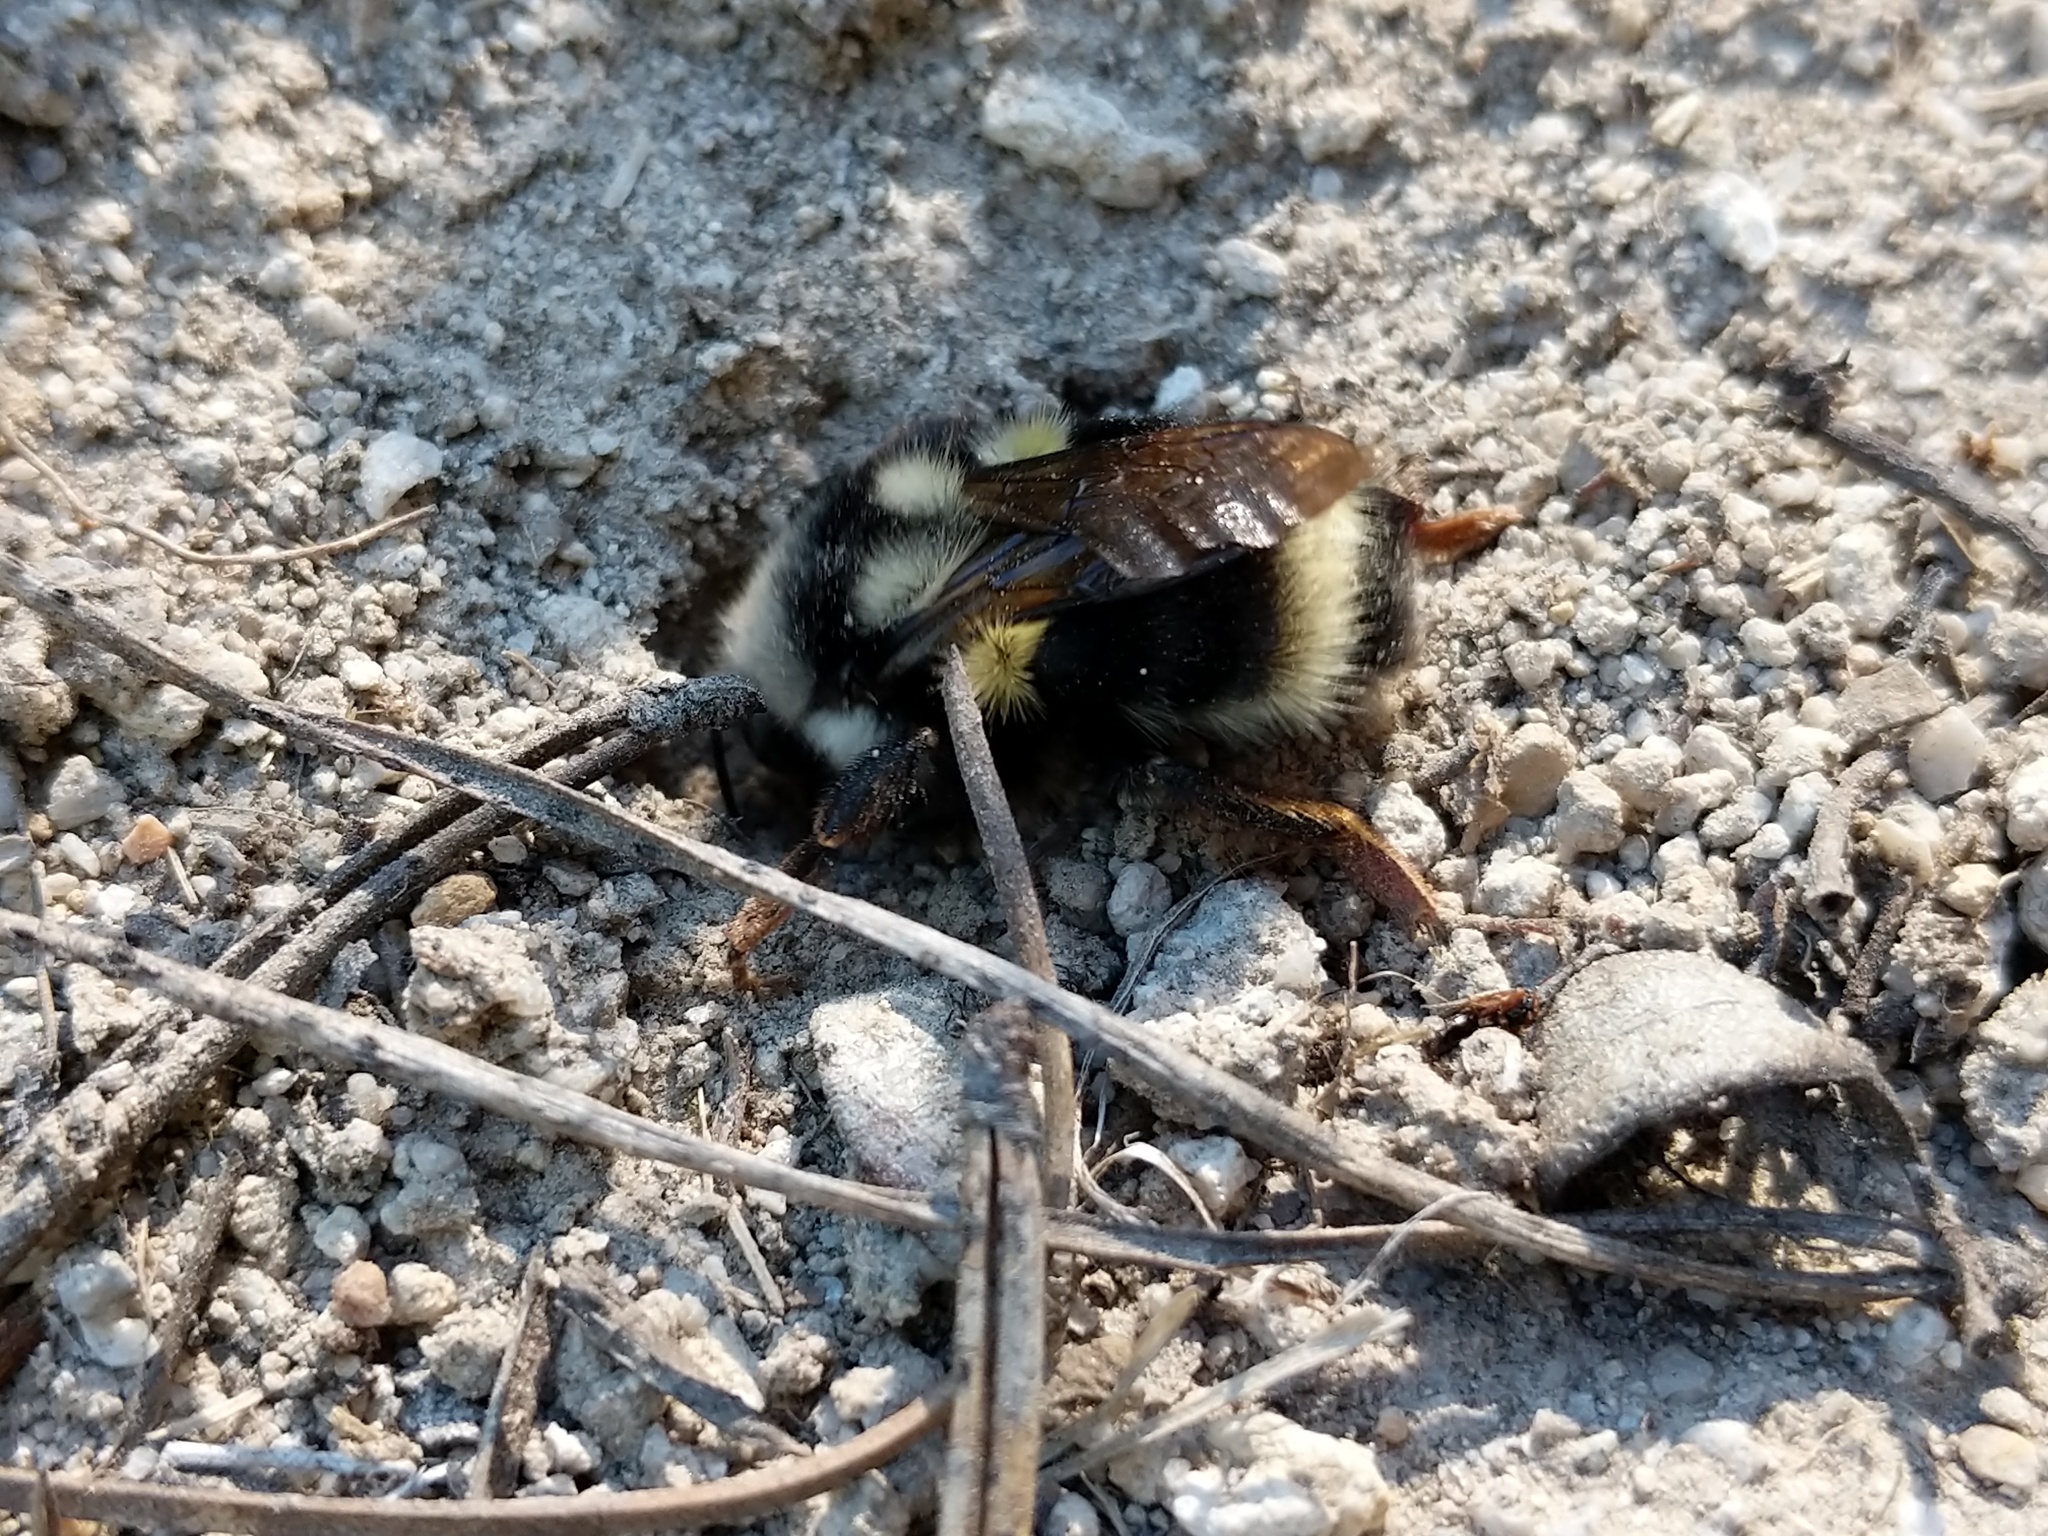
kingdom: Animalia
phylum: Arthropoda
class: Insecta
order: Hymenoptera
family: Apidae
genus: Bombus
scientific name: Bombus vancouverensis
